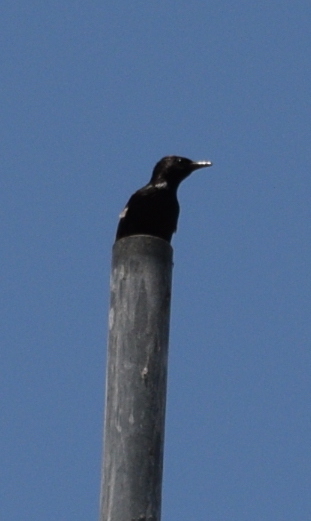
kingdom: Animalia
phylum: Chordata
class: Aves
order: Passeriformes
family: Sturnidae
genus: Sturnus
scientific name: Sturnus vulgaris
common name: Common starling
